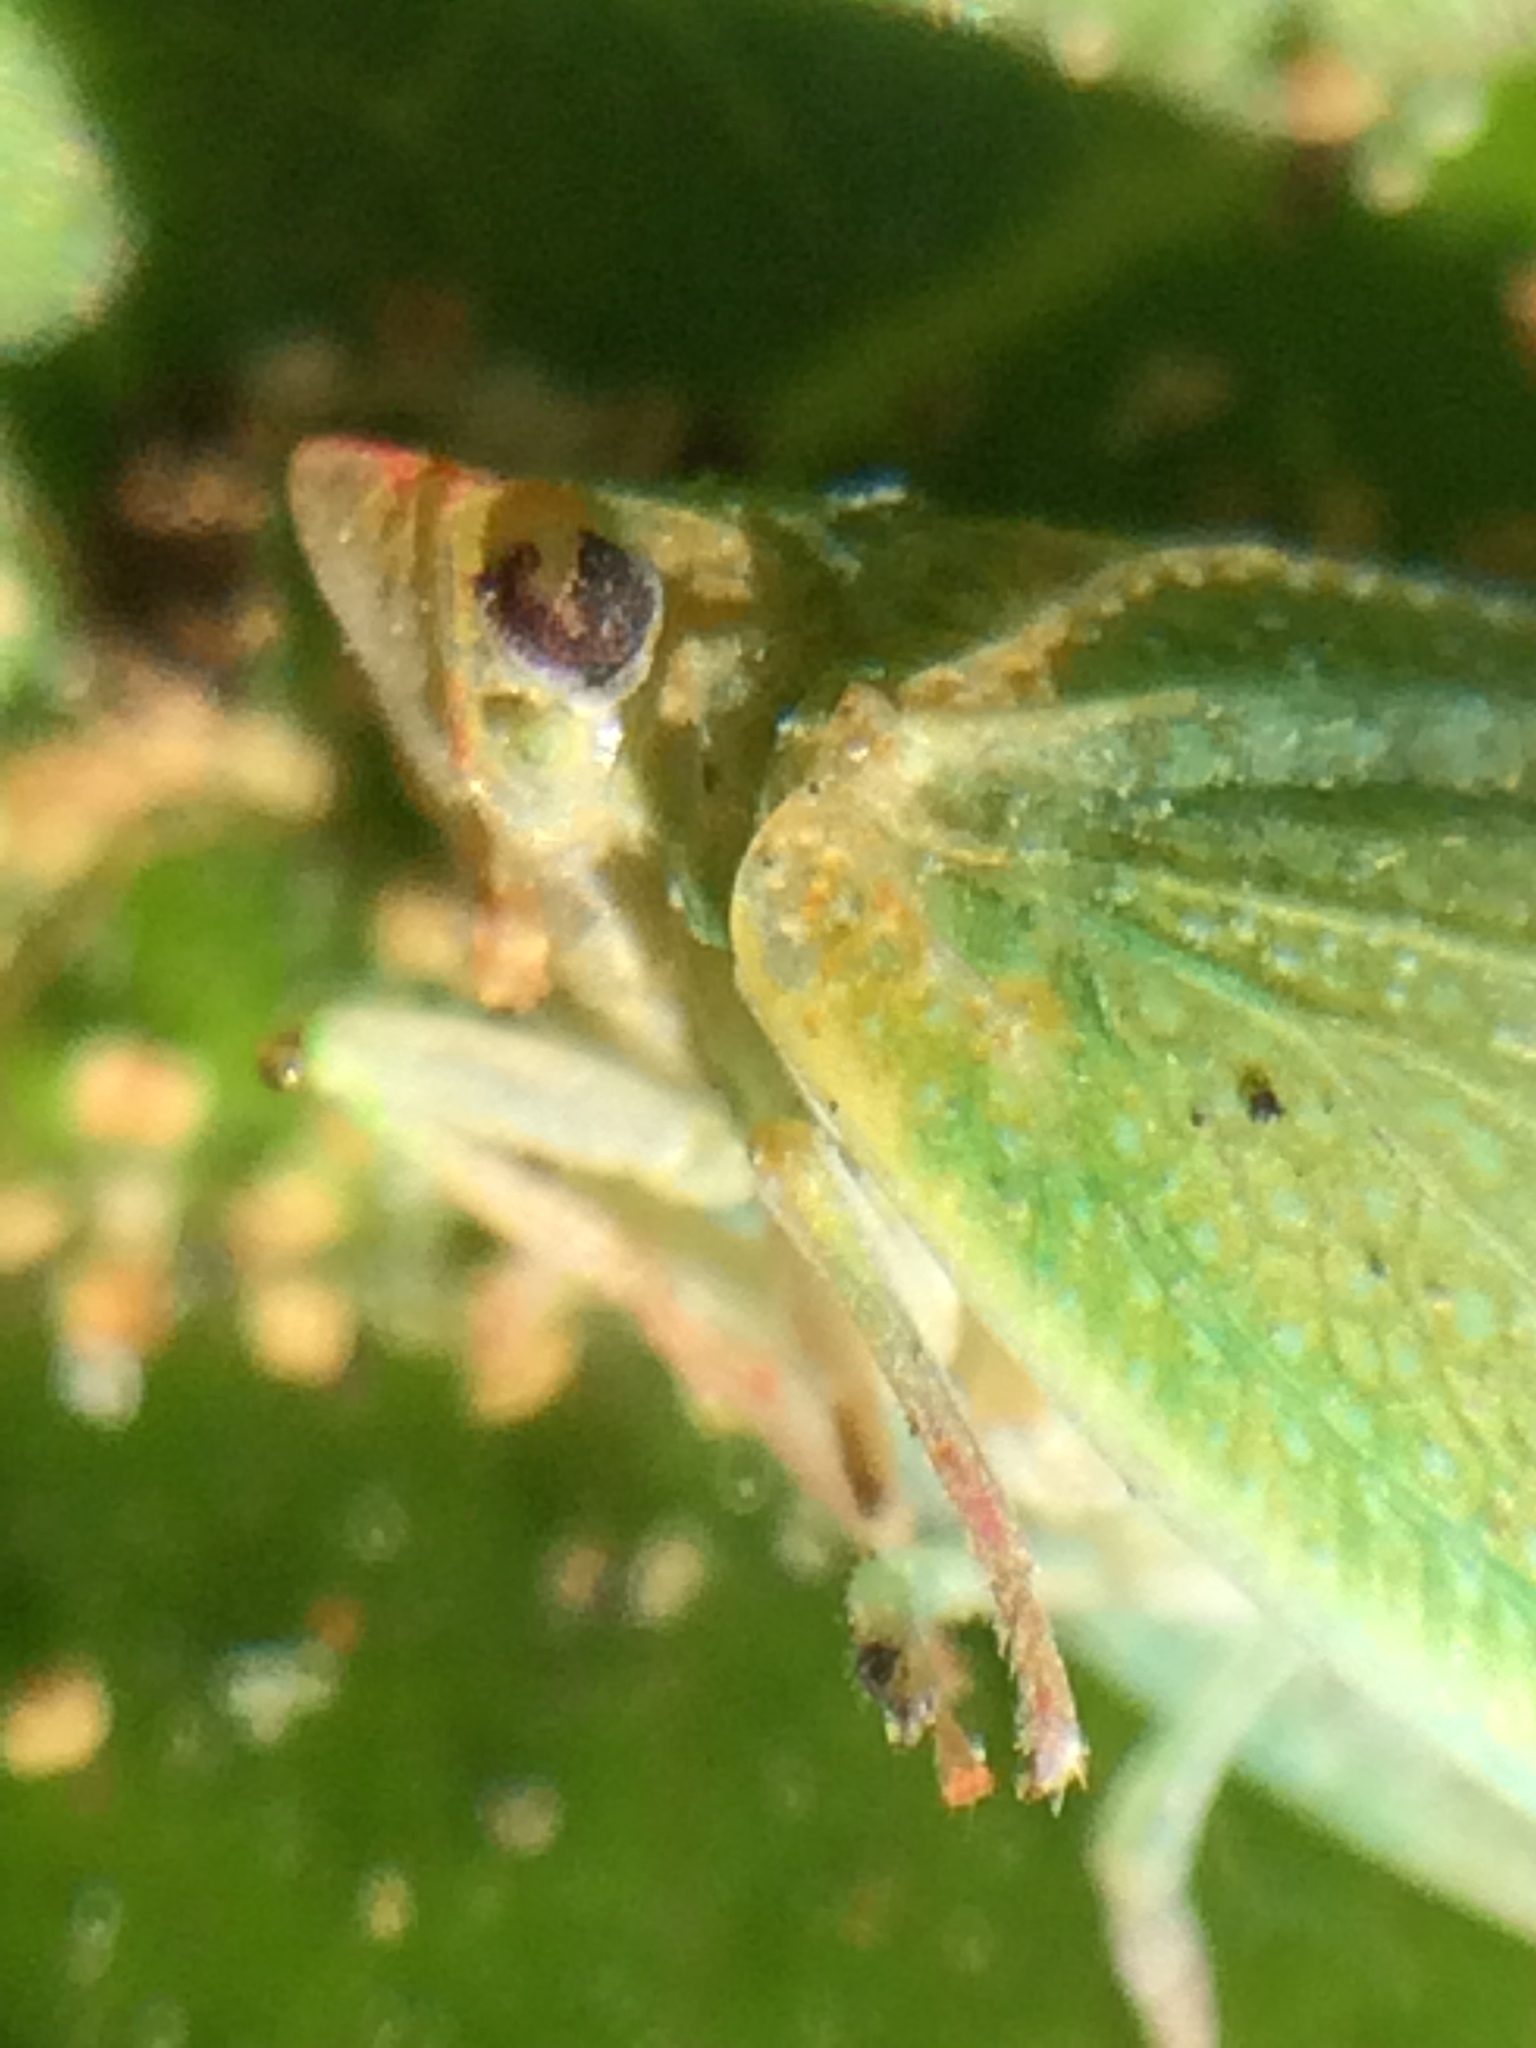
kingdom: Animalia
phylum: Arthropoda
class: Insecta
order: Hemiptera
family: Flatidae
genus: Siphanta
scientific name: Siphanta acuta
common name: Torpedo bug
